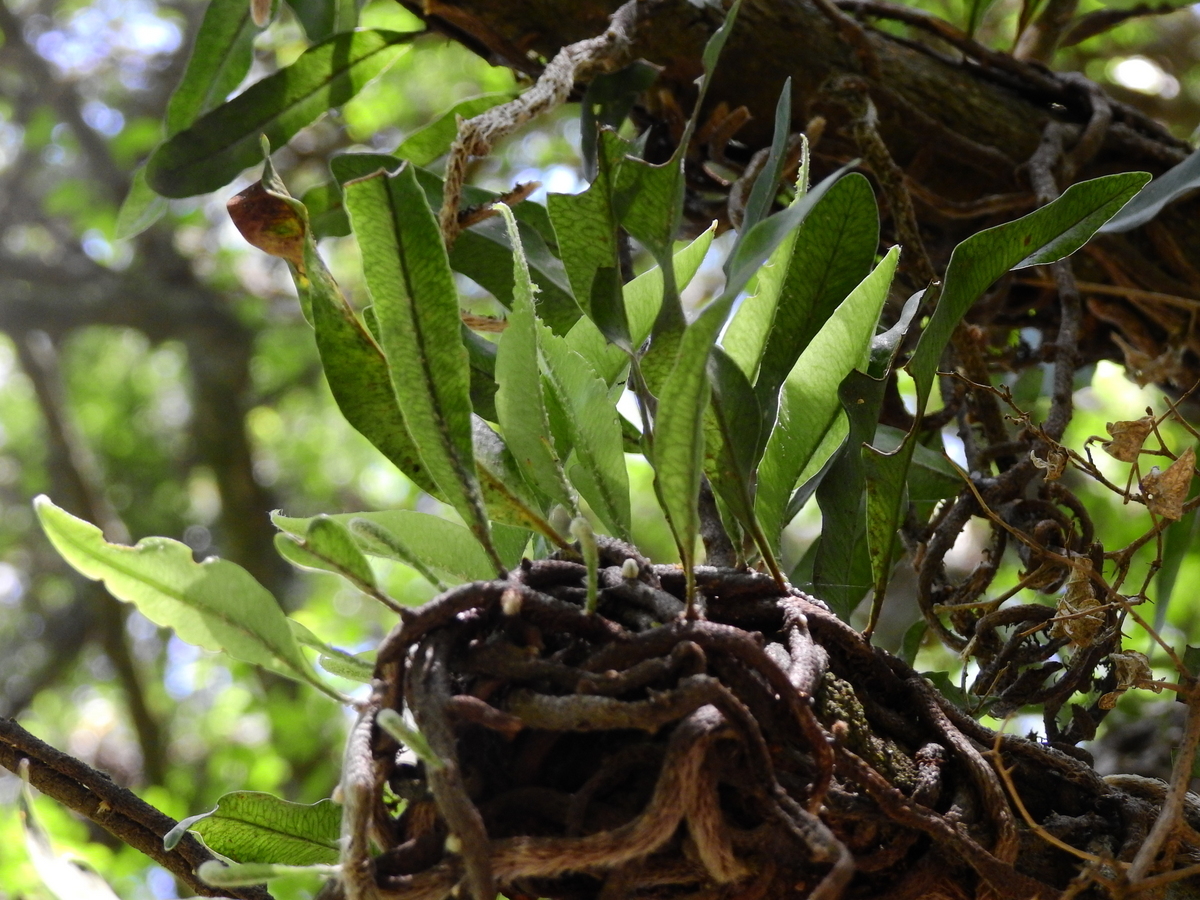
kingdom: Plantae
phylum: Tracheophyta
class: Polypodiopsida
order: Polypodiales
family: Polypodiaceae
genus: Microgramma
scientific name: Microgramma mortoniana
